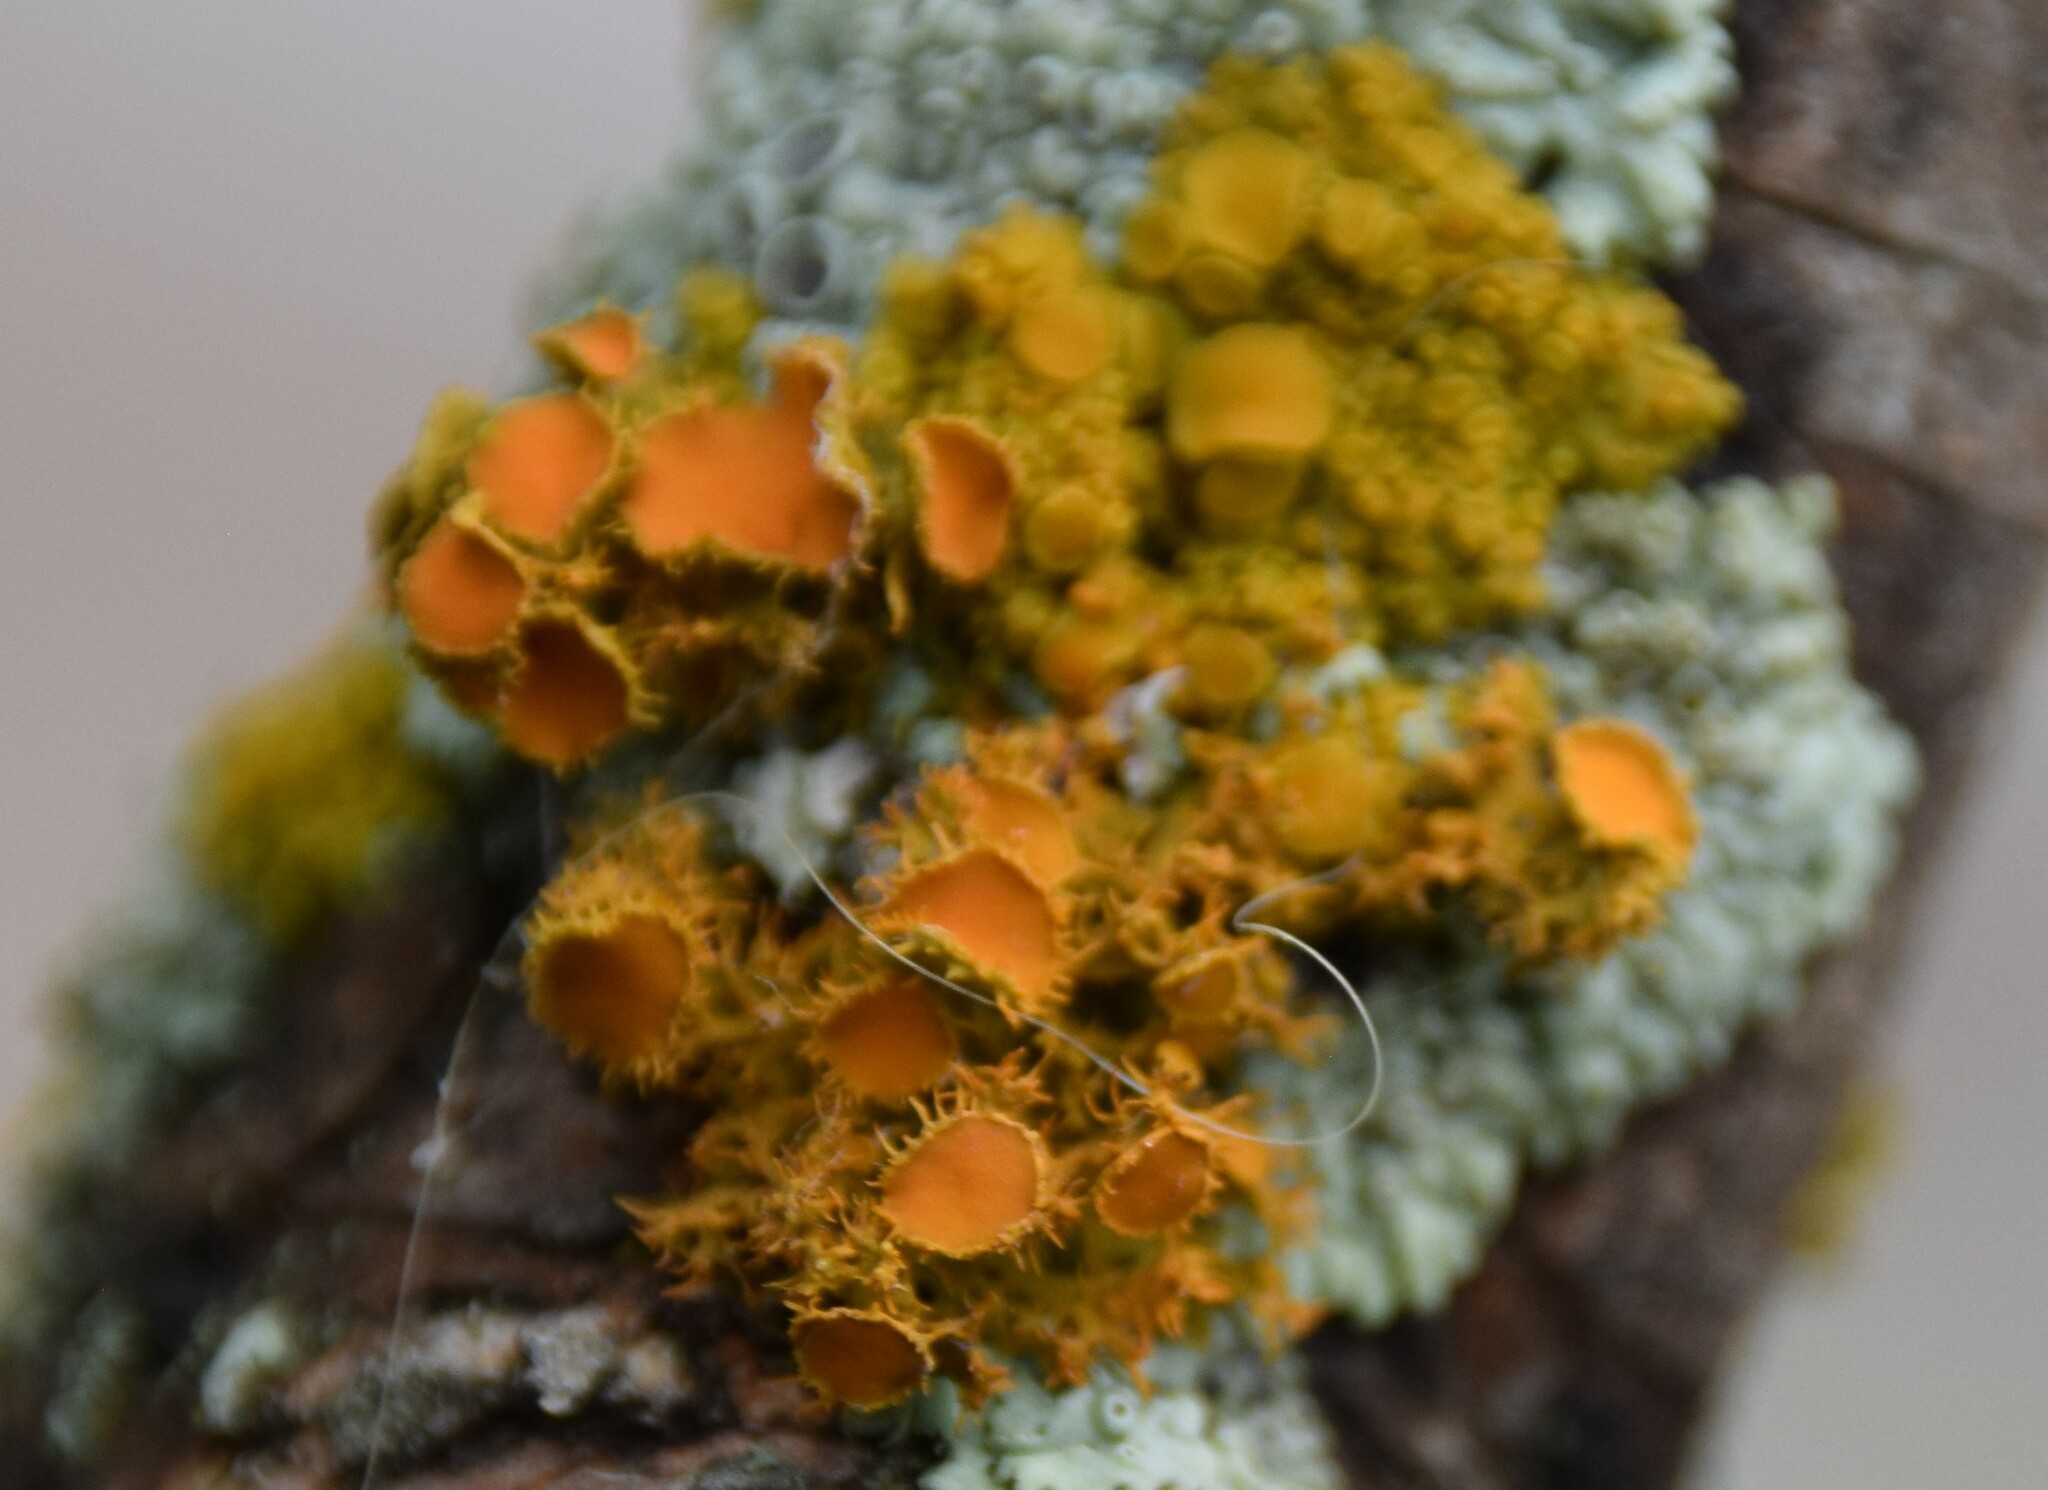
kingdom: Fungi
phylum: Ascomycota
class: Lecanoromycetes
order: Teloschistales
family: Teloschistaceae
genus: Niorma
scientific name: Niorma chrysophthalma
